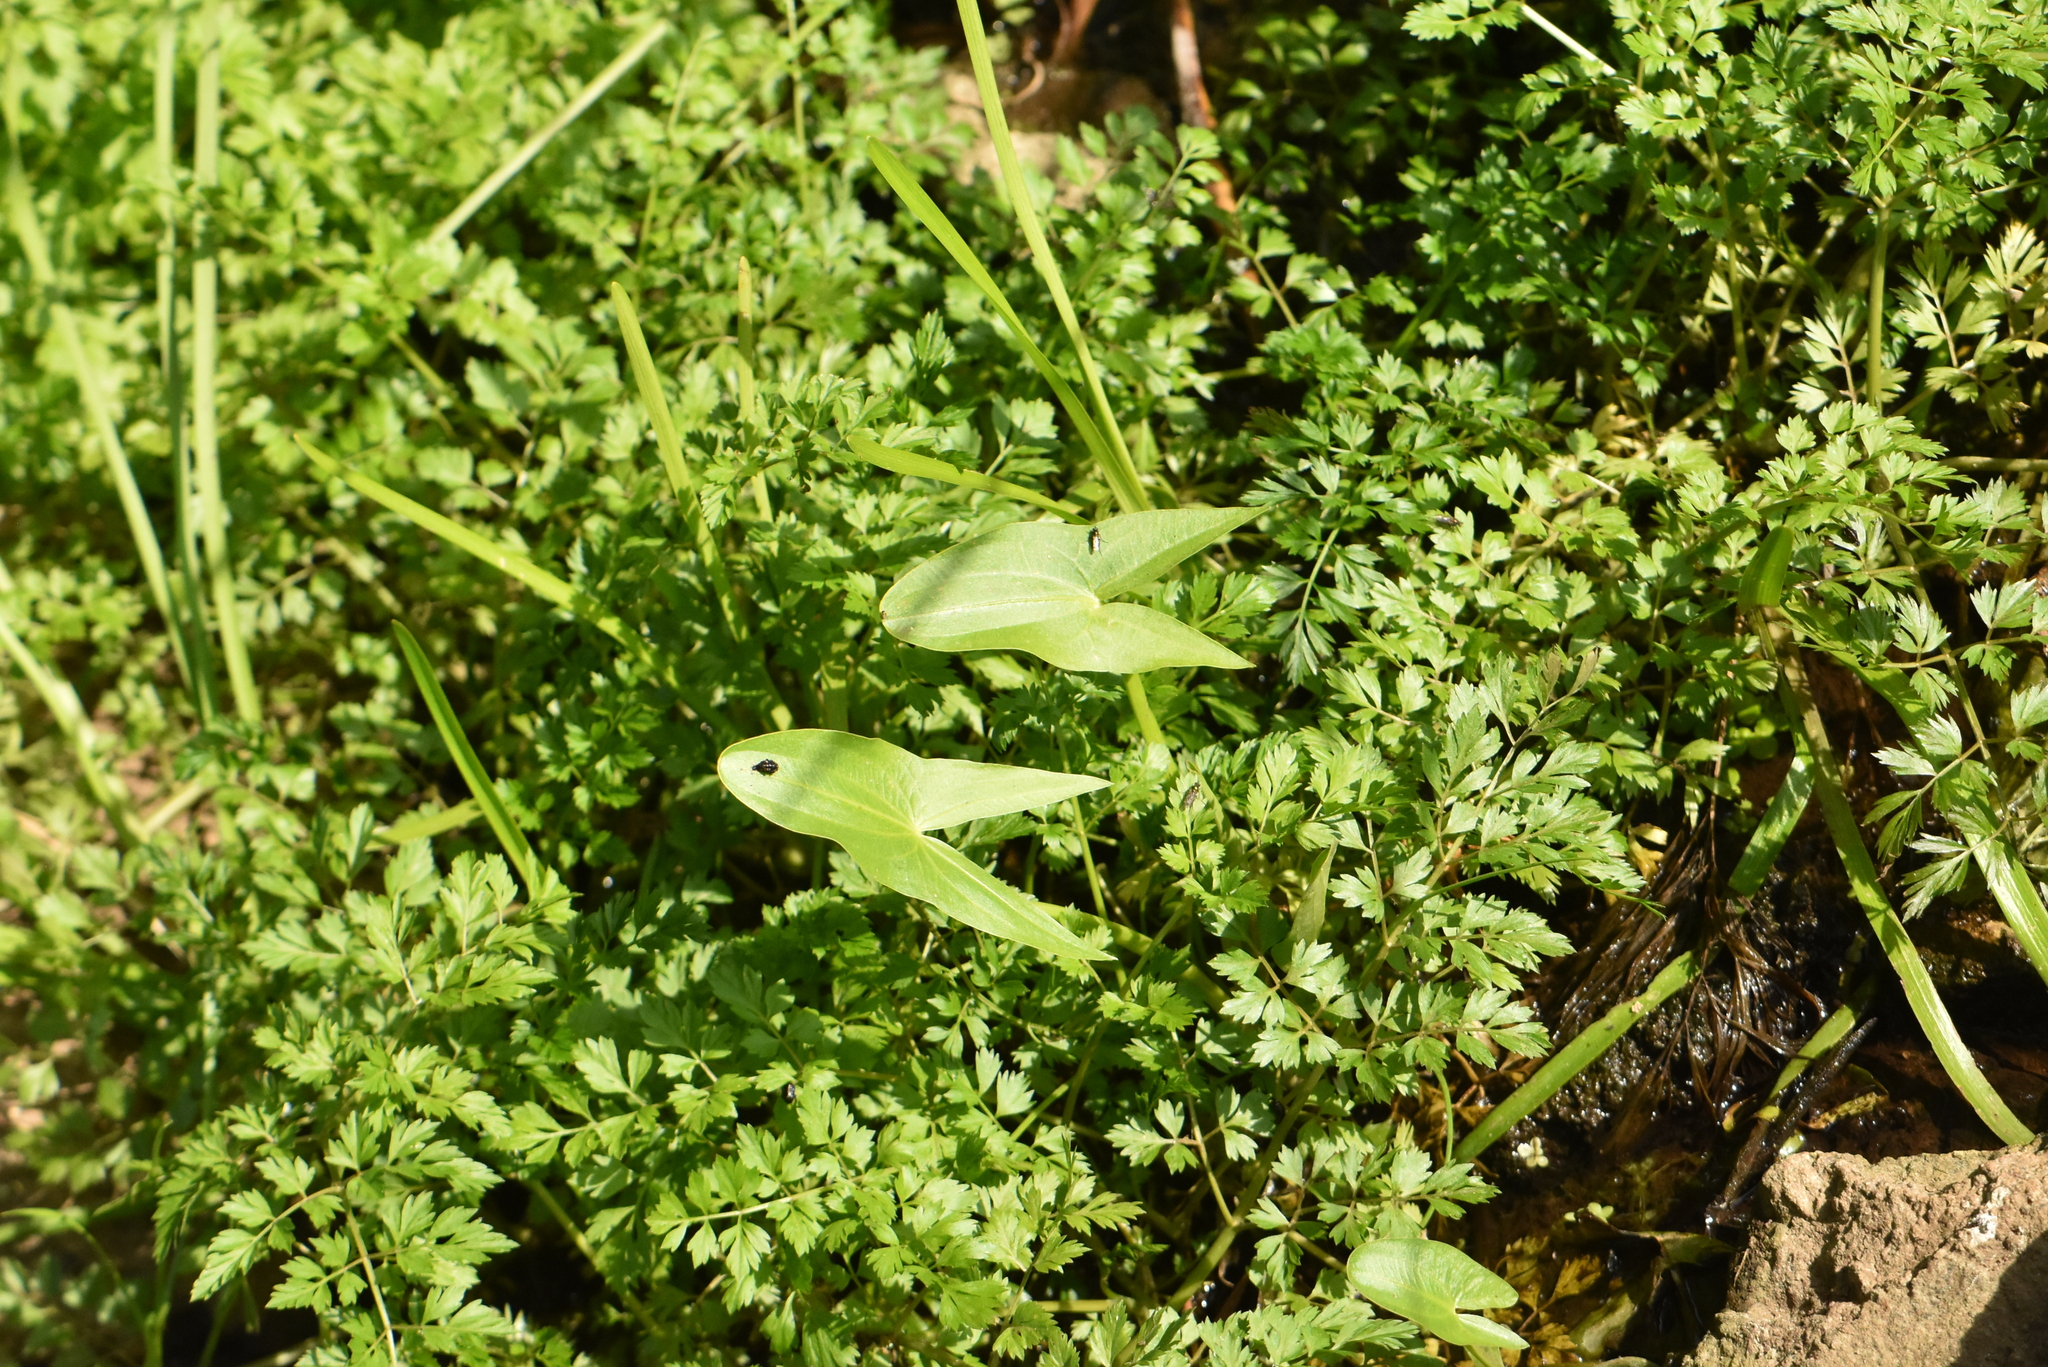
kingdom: Plantae
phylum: Tracheophyta
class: Liliopsida
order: Alismatales
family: Alismataceae
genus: Sagittaria
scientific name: Sagittaria sagittifolia
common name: Arrowhead
